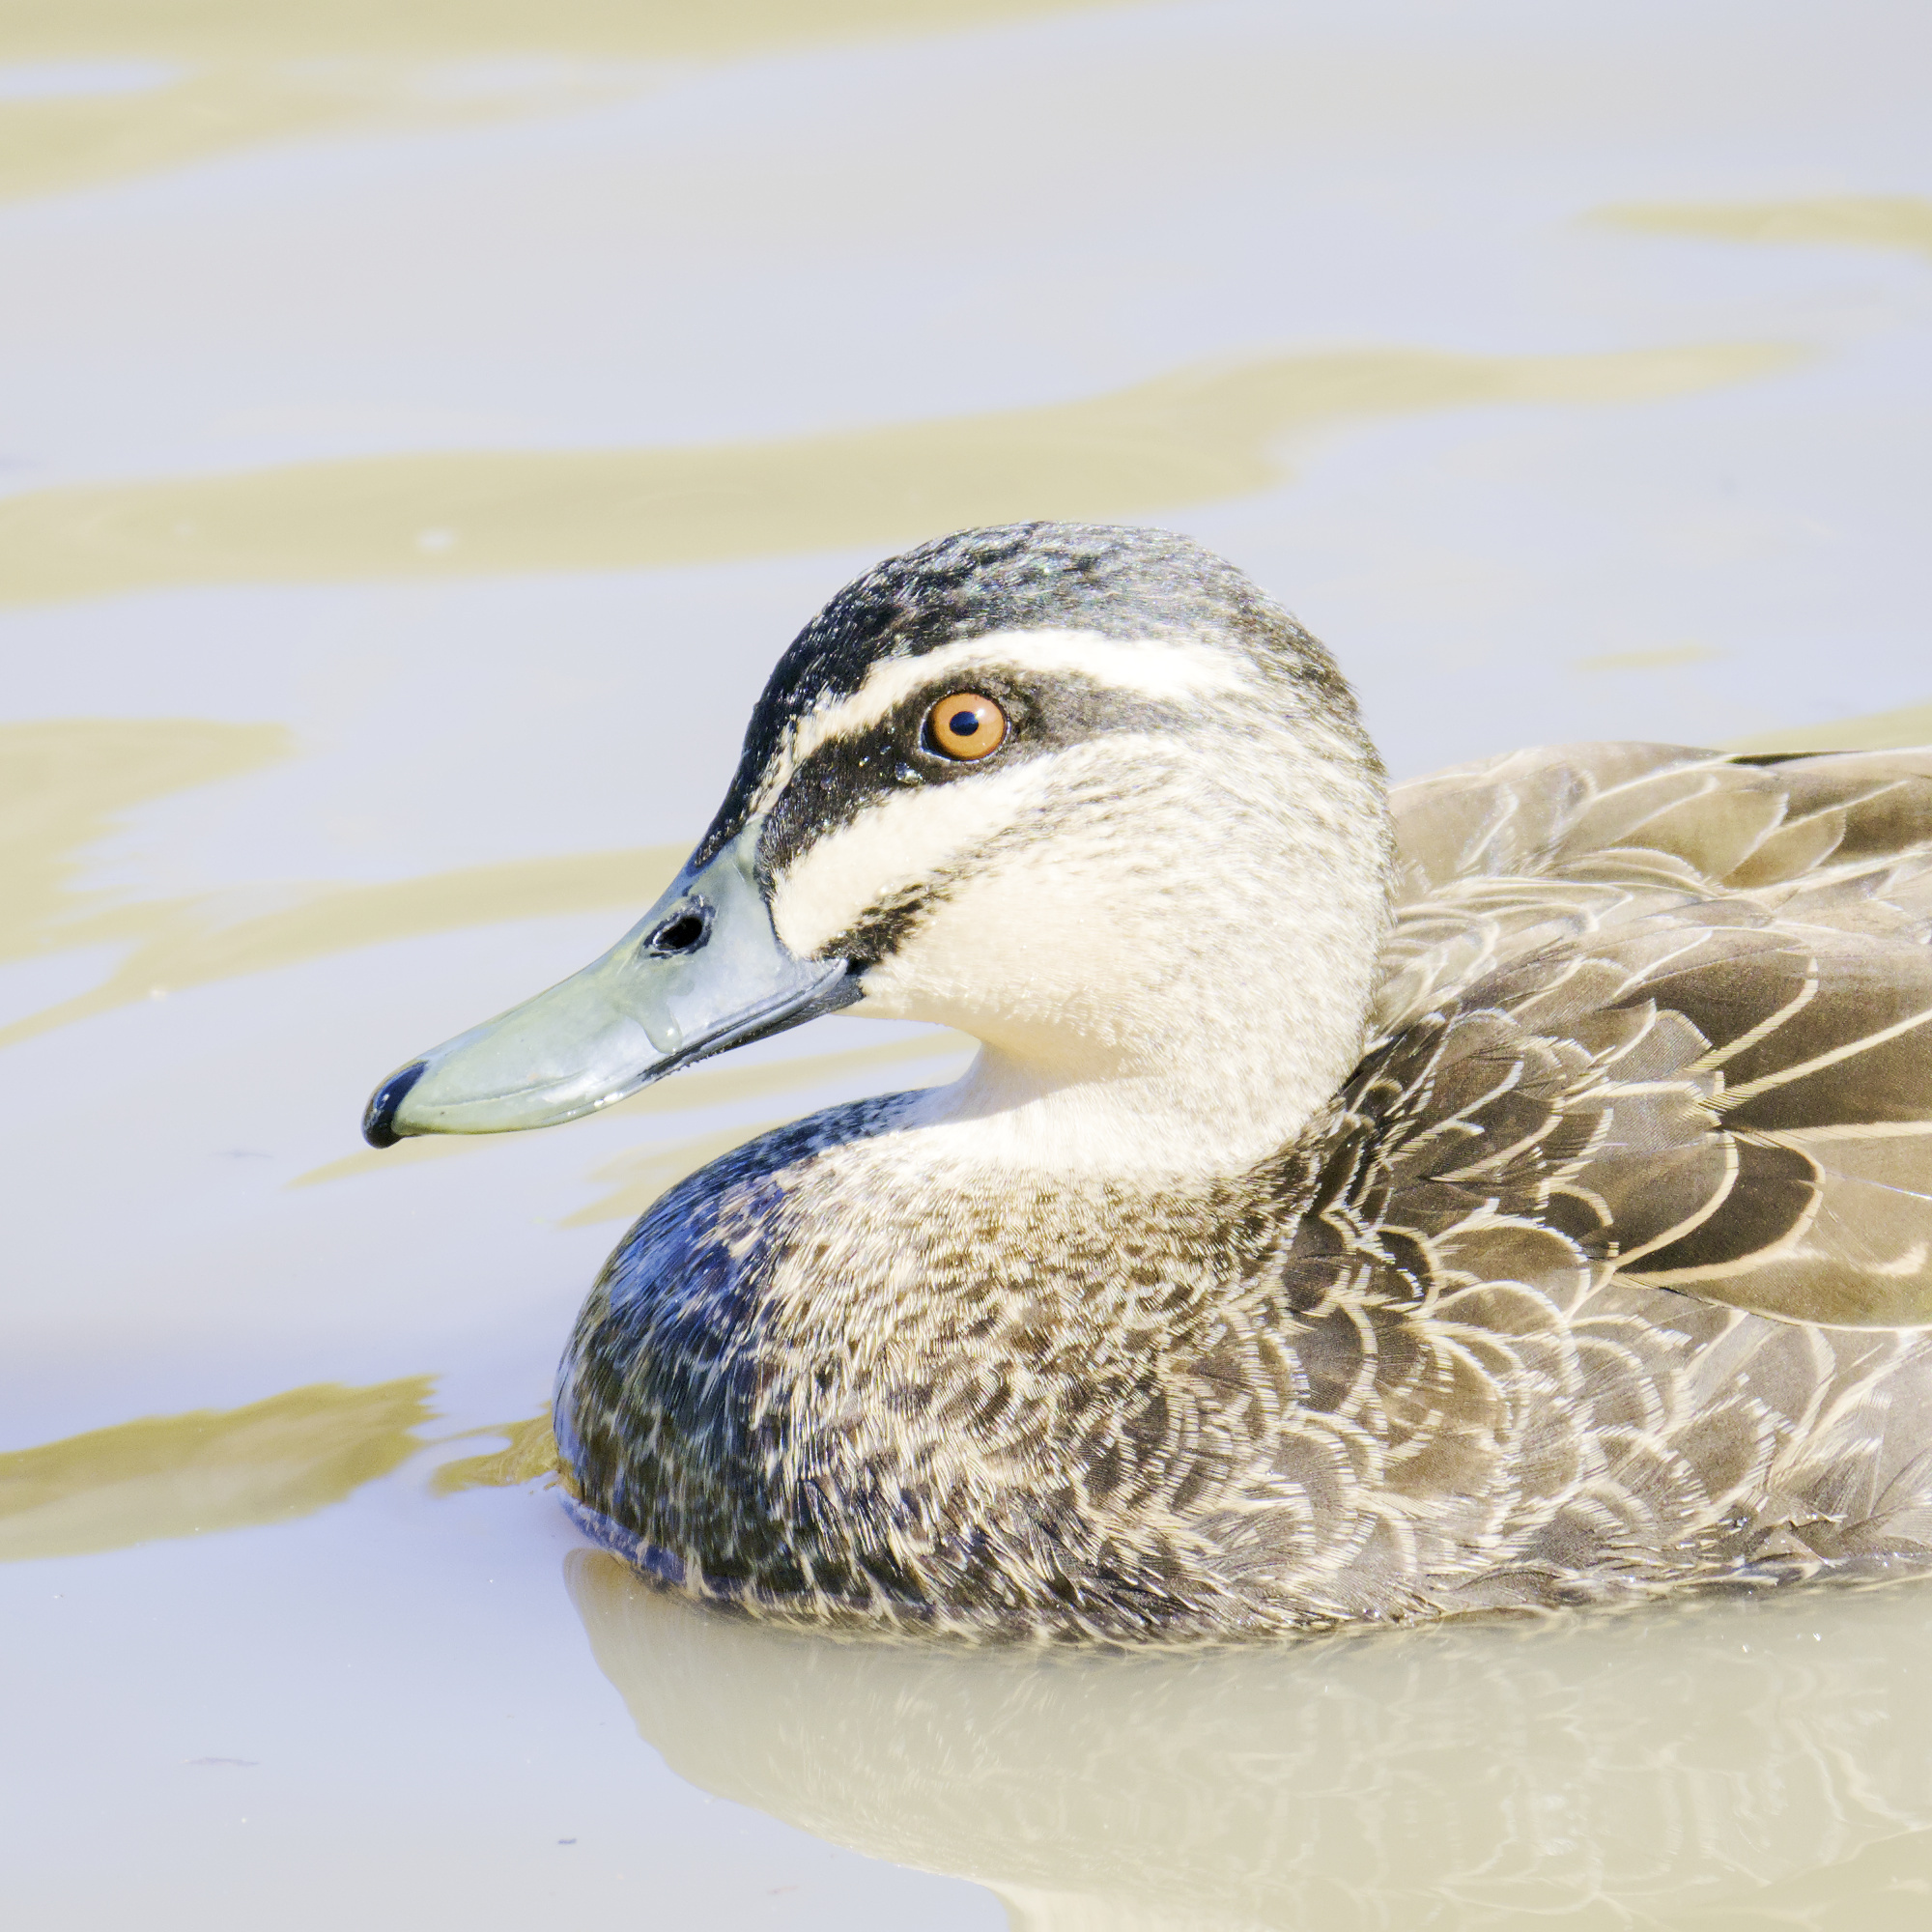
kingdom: Animalia
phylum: Chordata
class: Aves
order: Anseriformes
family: Anatidae
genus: Anas
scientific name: Anas superciliosa
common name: Pacific black duck
